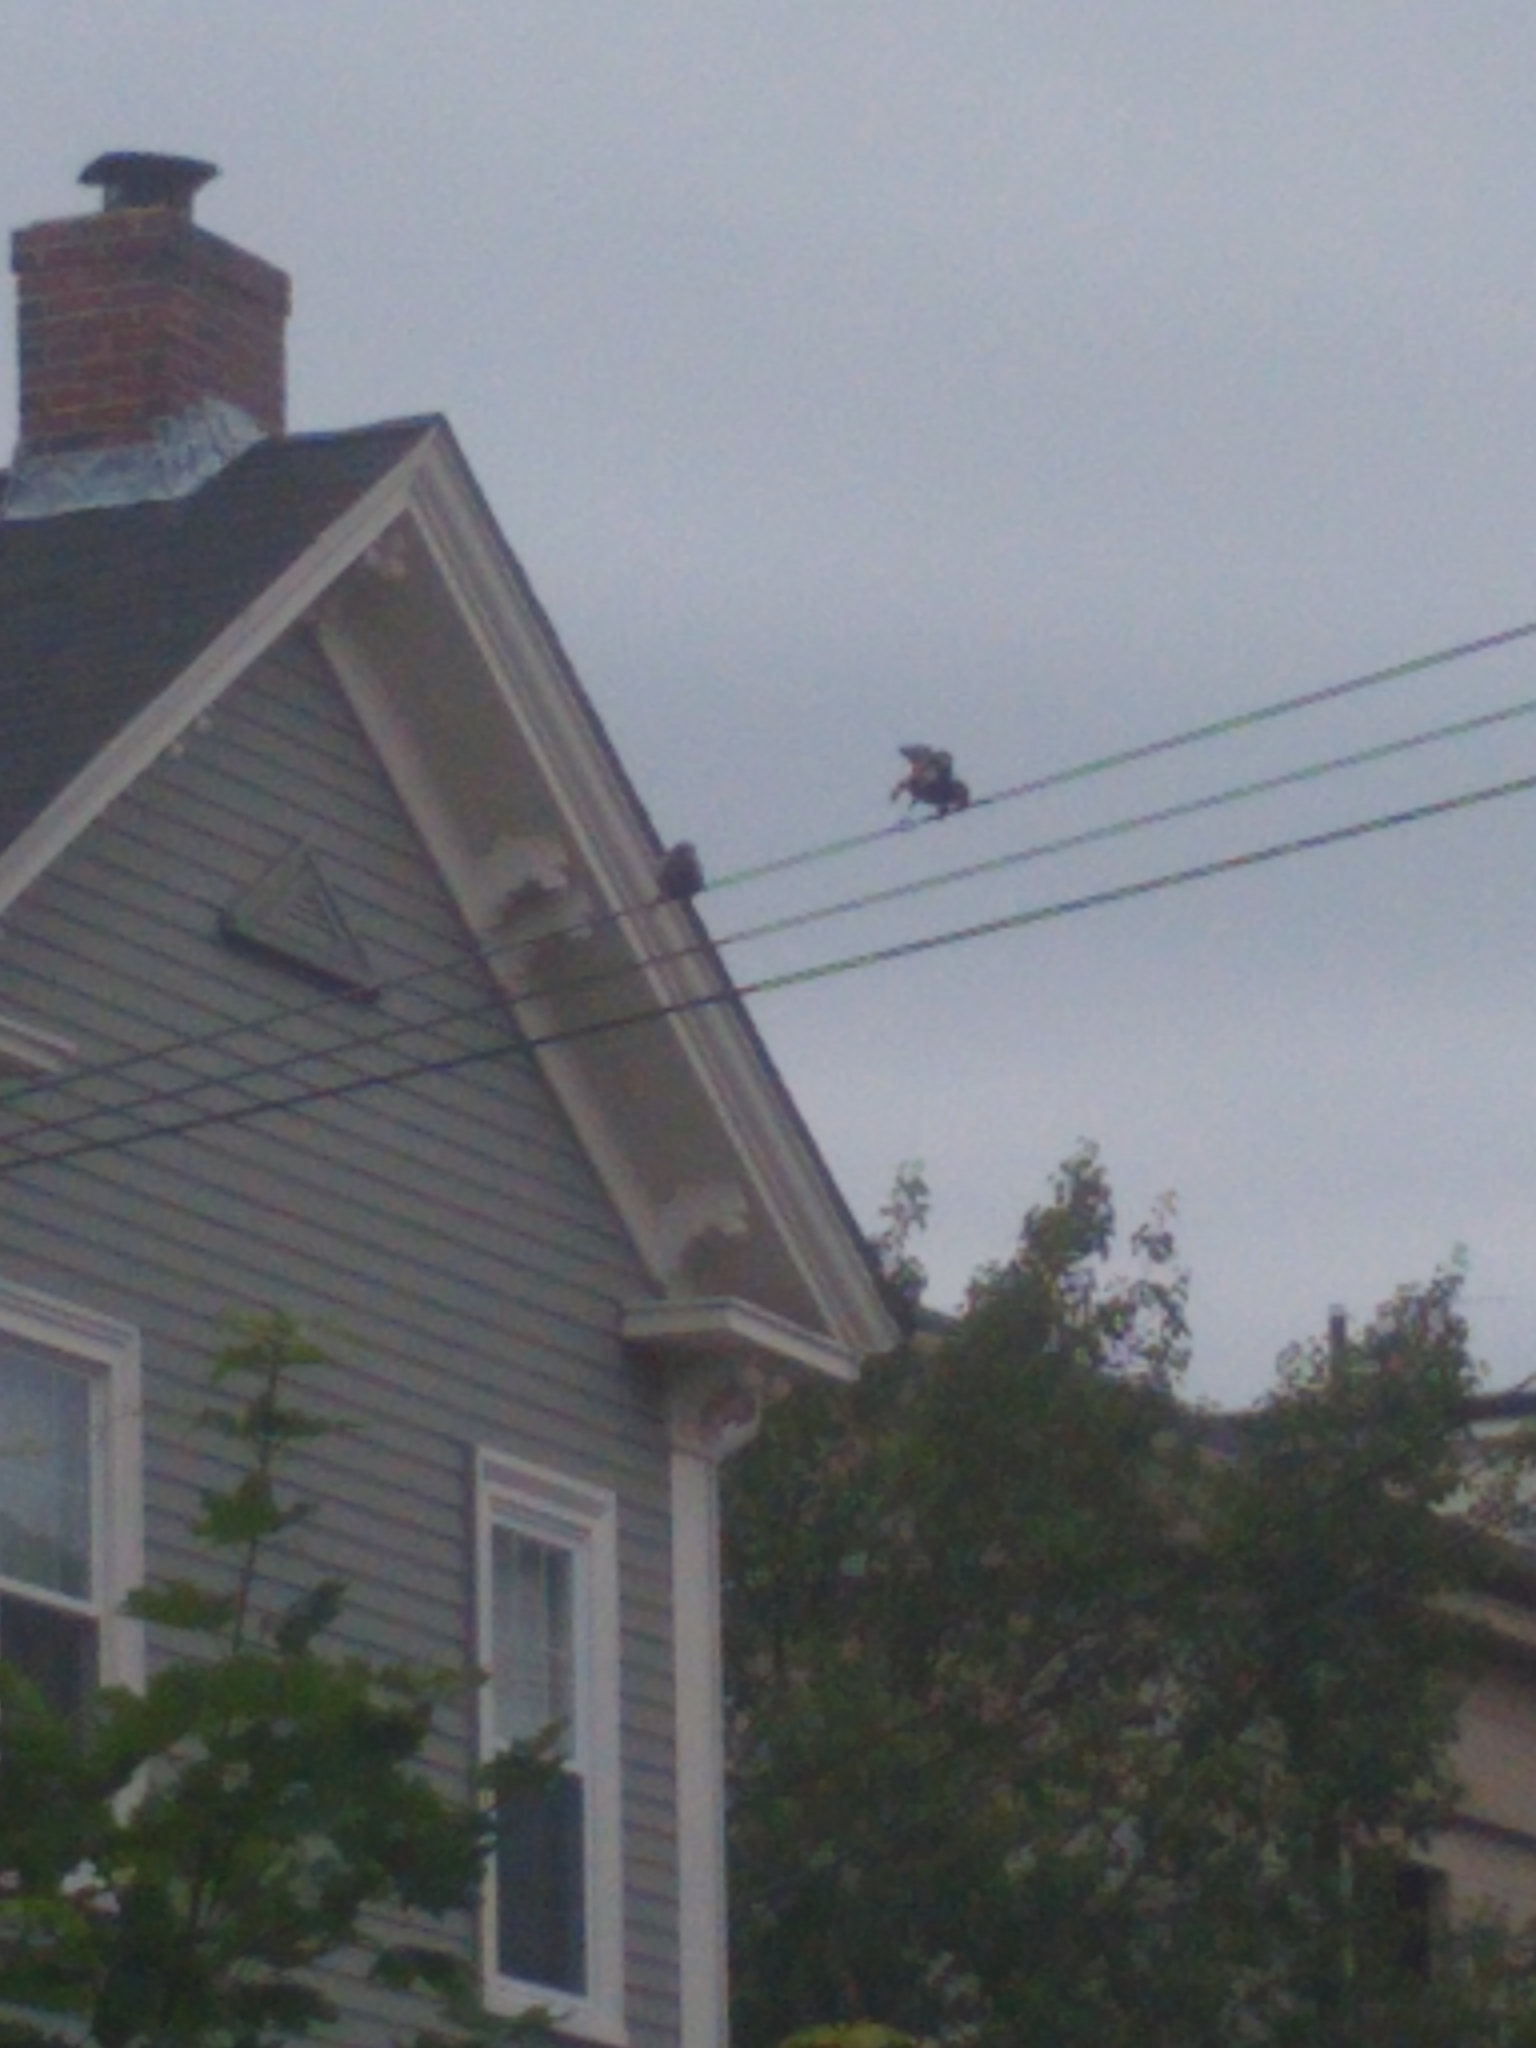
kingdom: Animalia
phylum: Chordata
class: Aves
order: Passeriformes
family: Passeridae
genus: Passer
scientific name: Passer domesticus
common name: House sparrow
